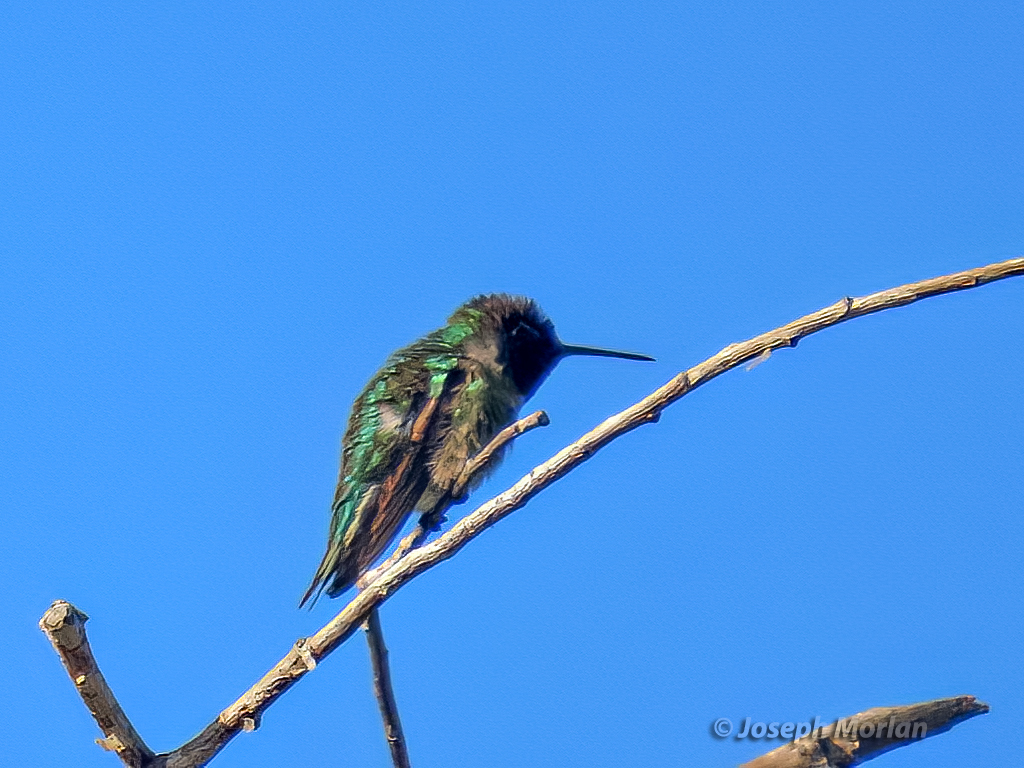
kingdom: Animalia
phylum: Chordata
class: Aves
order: Apodiformes
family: Trochilidae
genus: Calypte
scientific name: Calypte anna
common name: Anna's hummingbird
